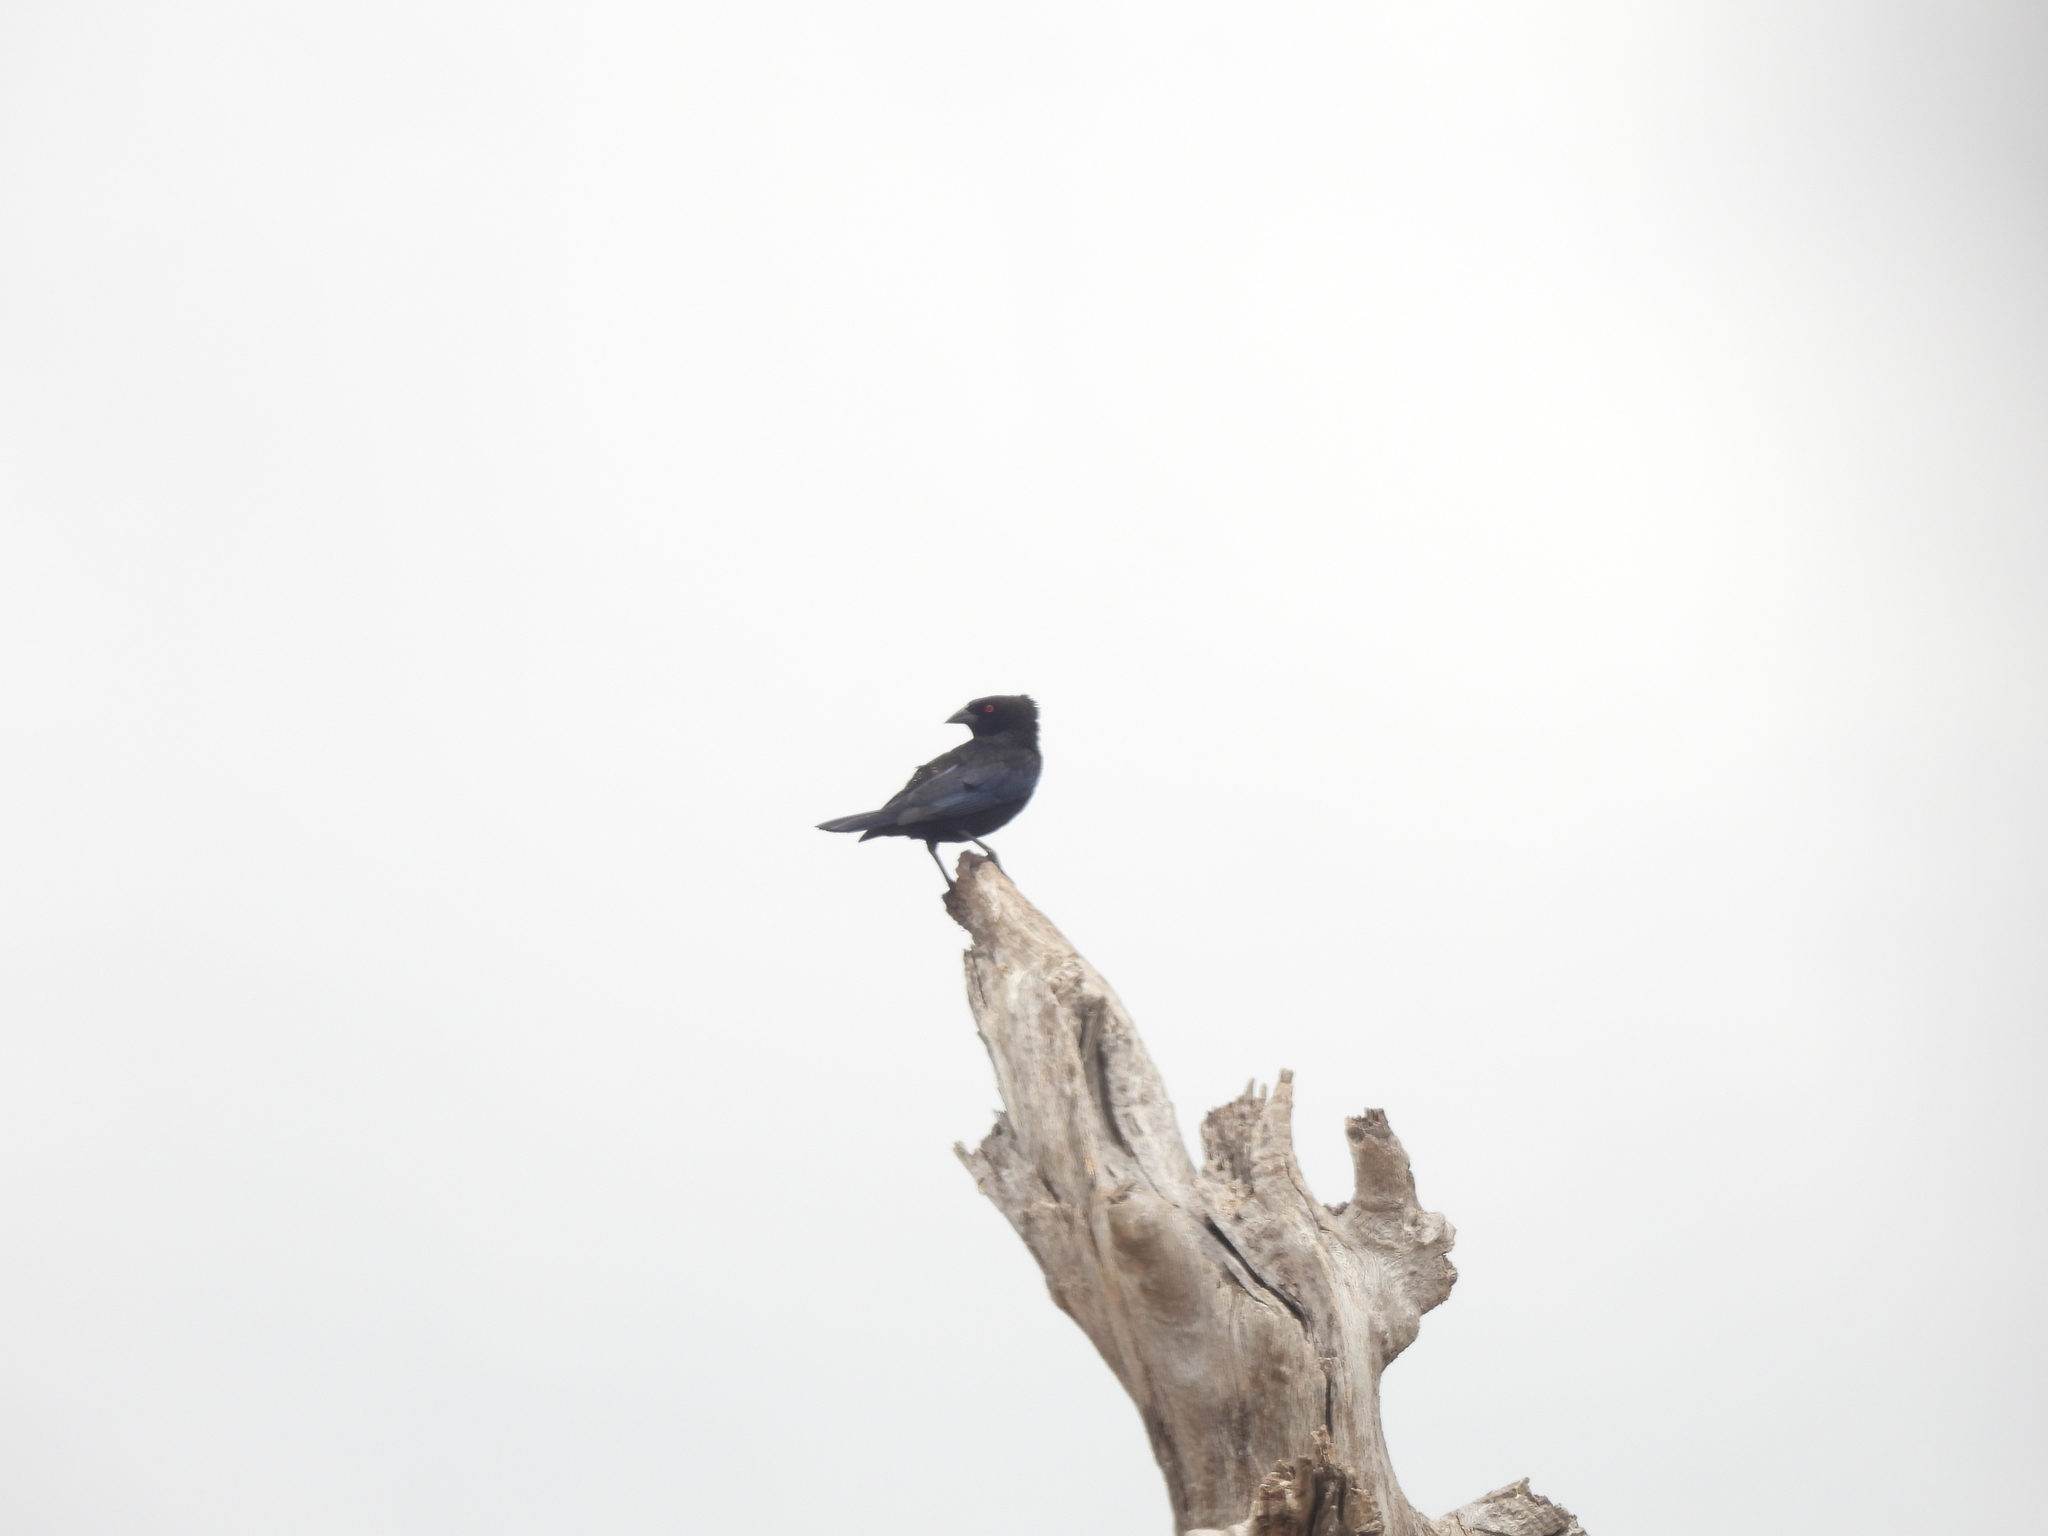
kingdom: Animalia
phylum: Chordata
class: Aves
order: Passeriformes
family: Icteridae
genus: Molothrus
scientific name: Molothrus aeneus
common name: Bronzed cowbird
